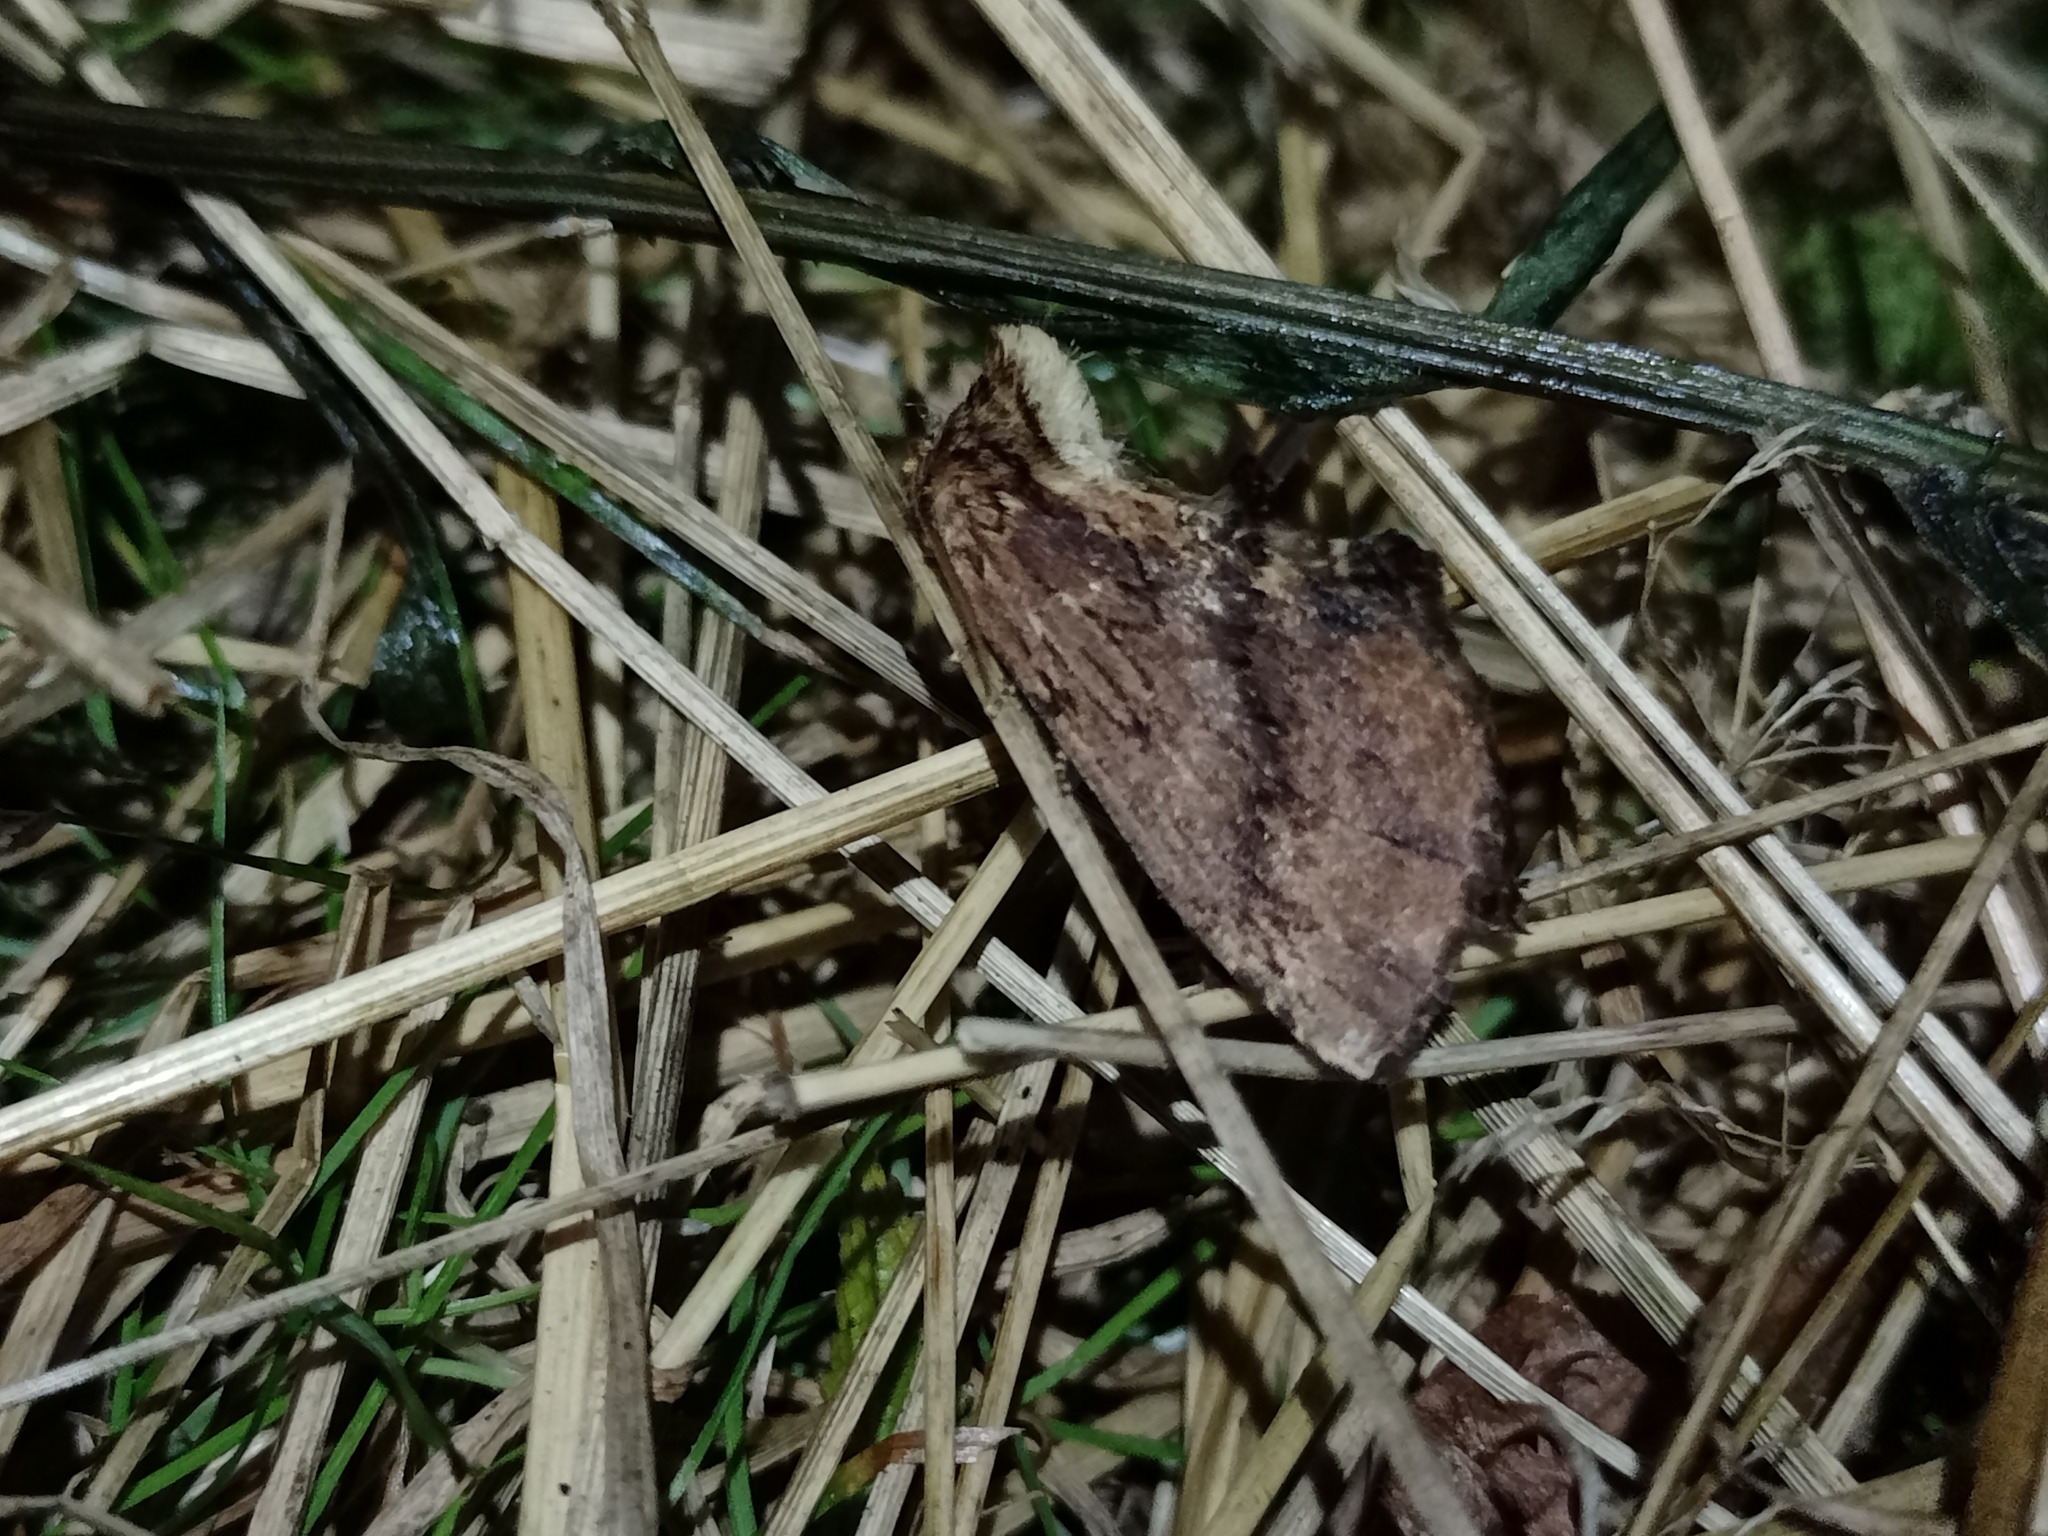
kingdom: Animalia
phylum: Arthropoda
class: Insecta
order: Lepidoptera
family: Notodontidae
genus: Ptilodon
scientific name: Ptilodon capucina
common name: Coxcomb prominent
